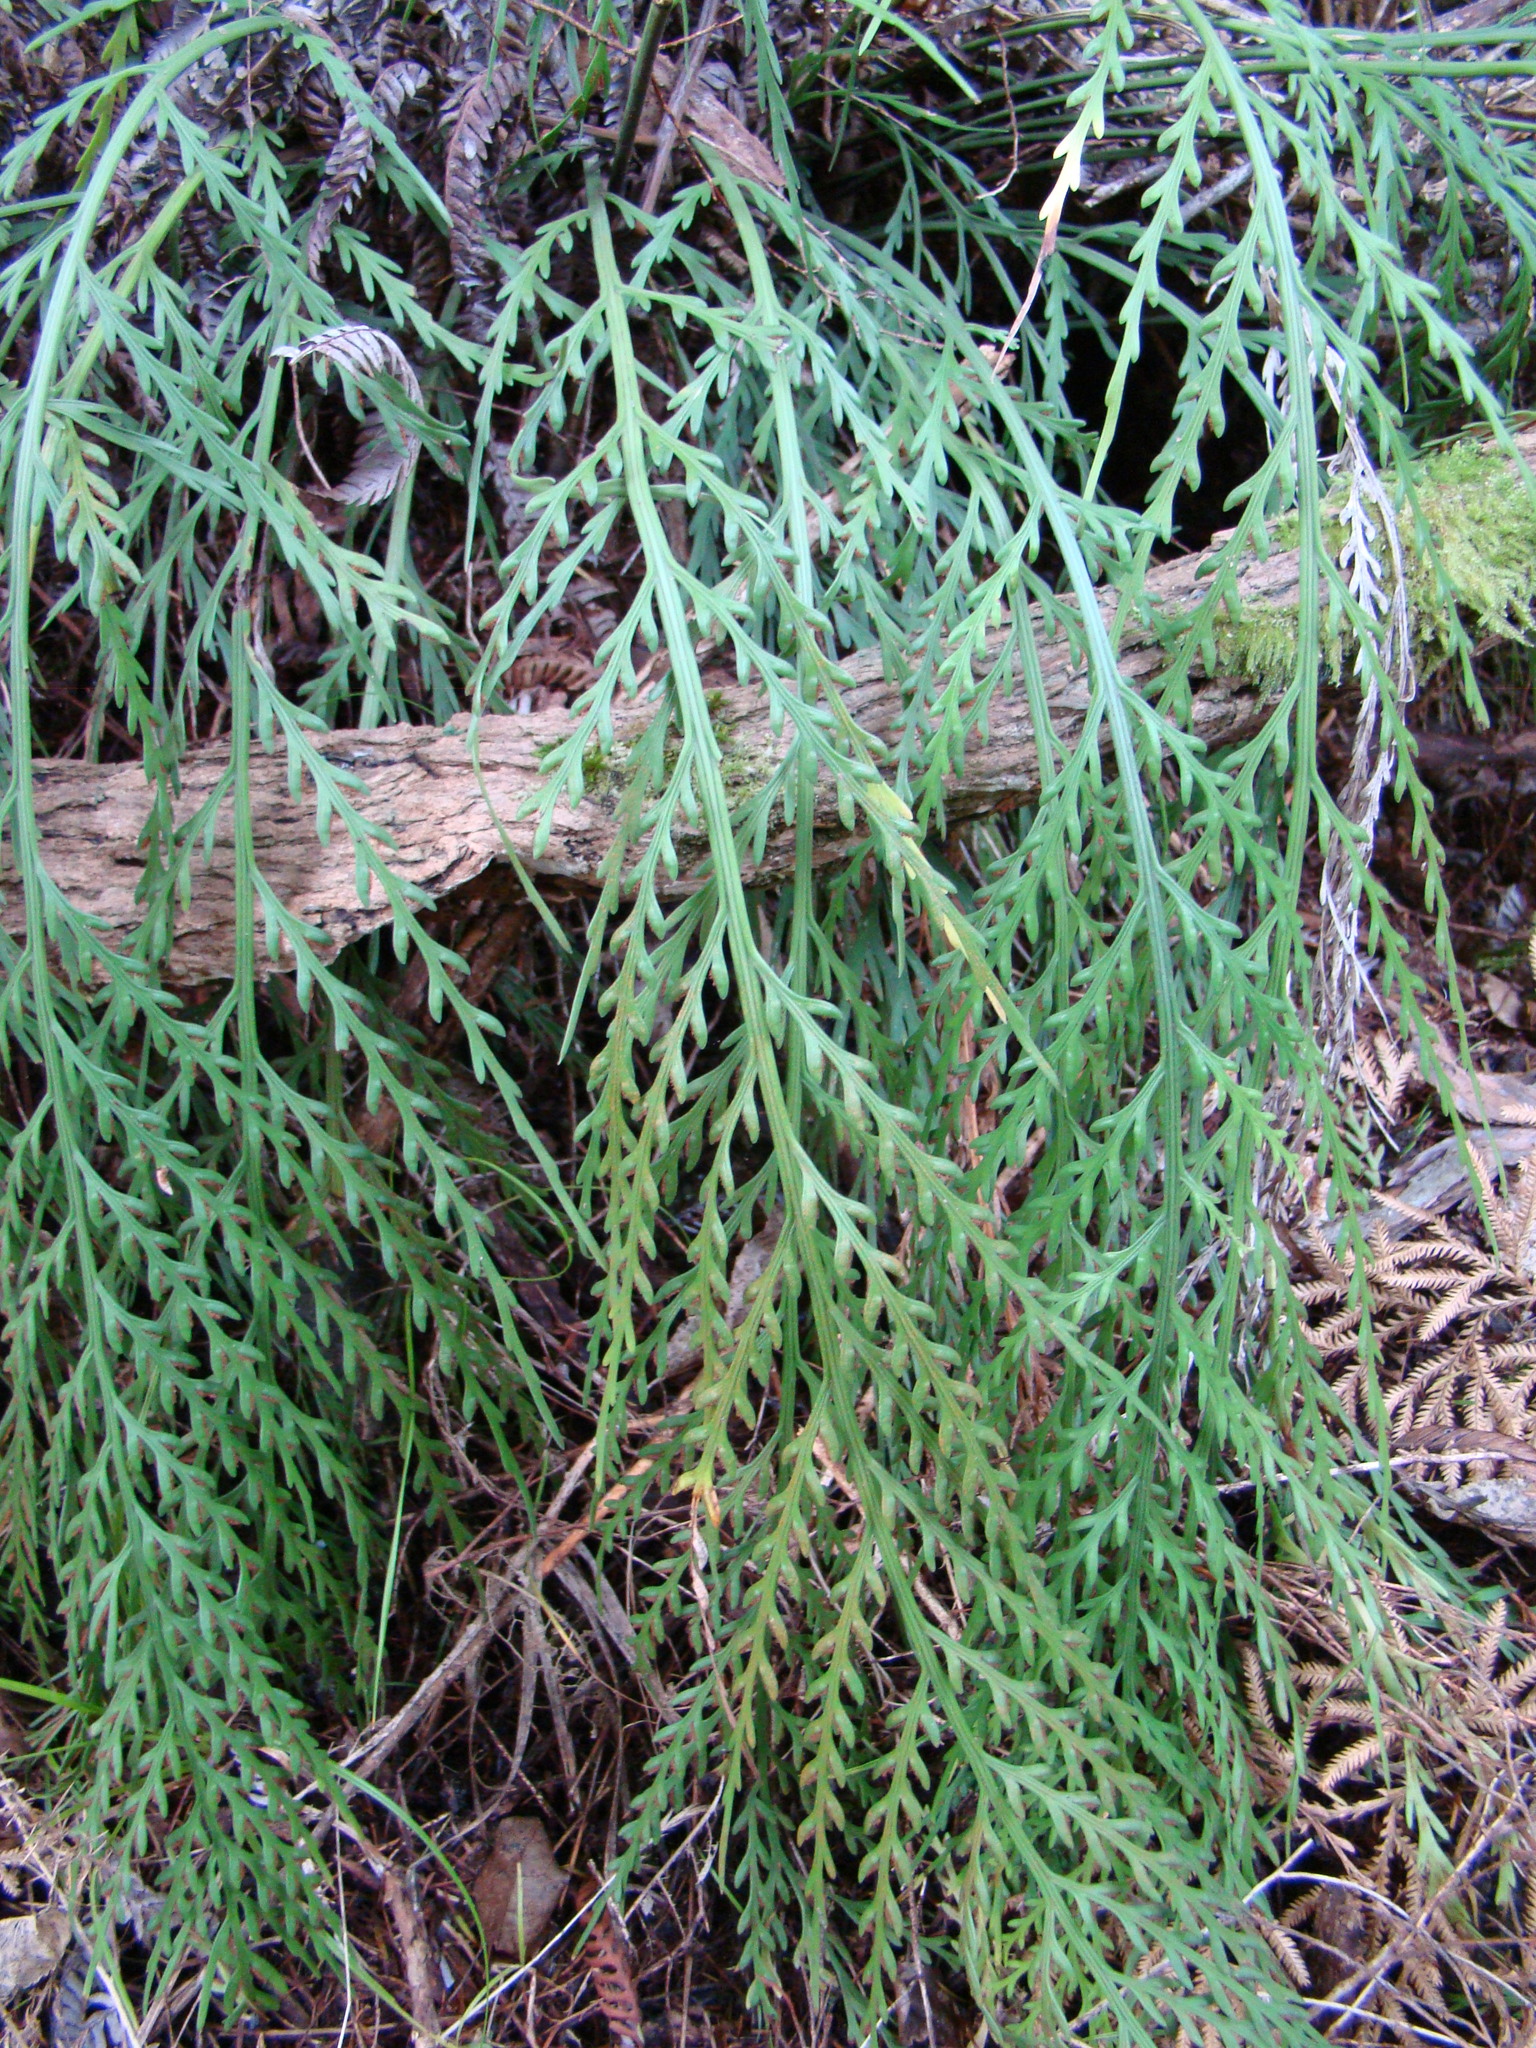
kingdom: Plantae
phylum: Tracheophyta
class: Polypodiopsida
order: Polypodiales
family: Aspleniaceae
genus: Asplenium
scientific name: Asplenium flaccidum
